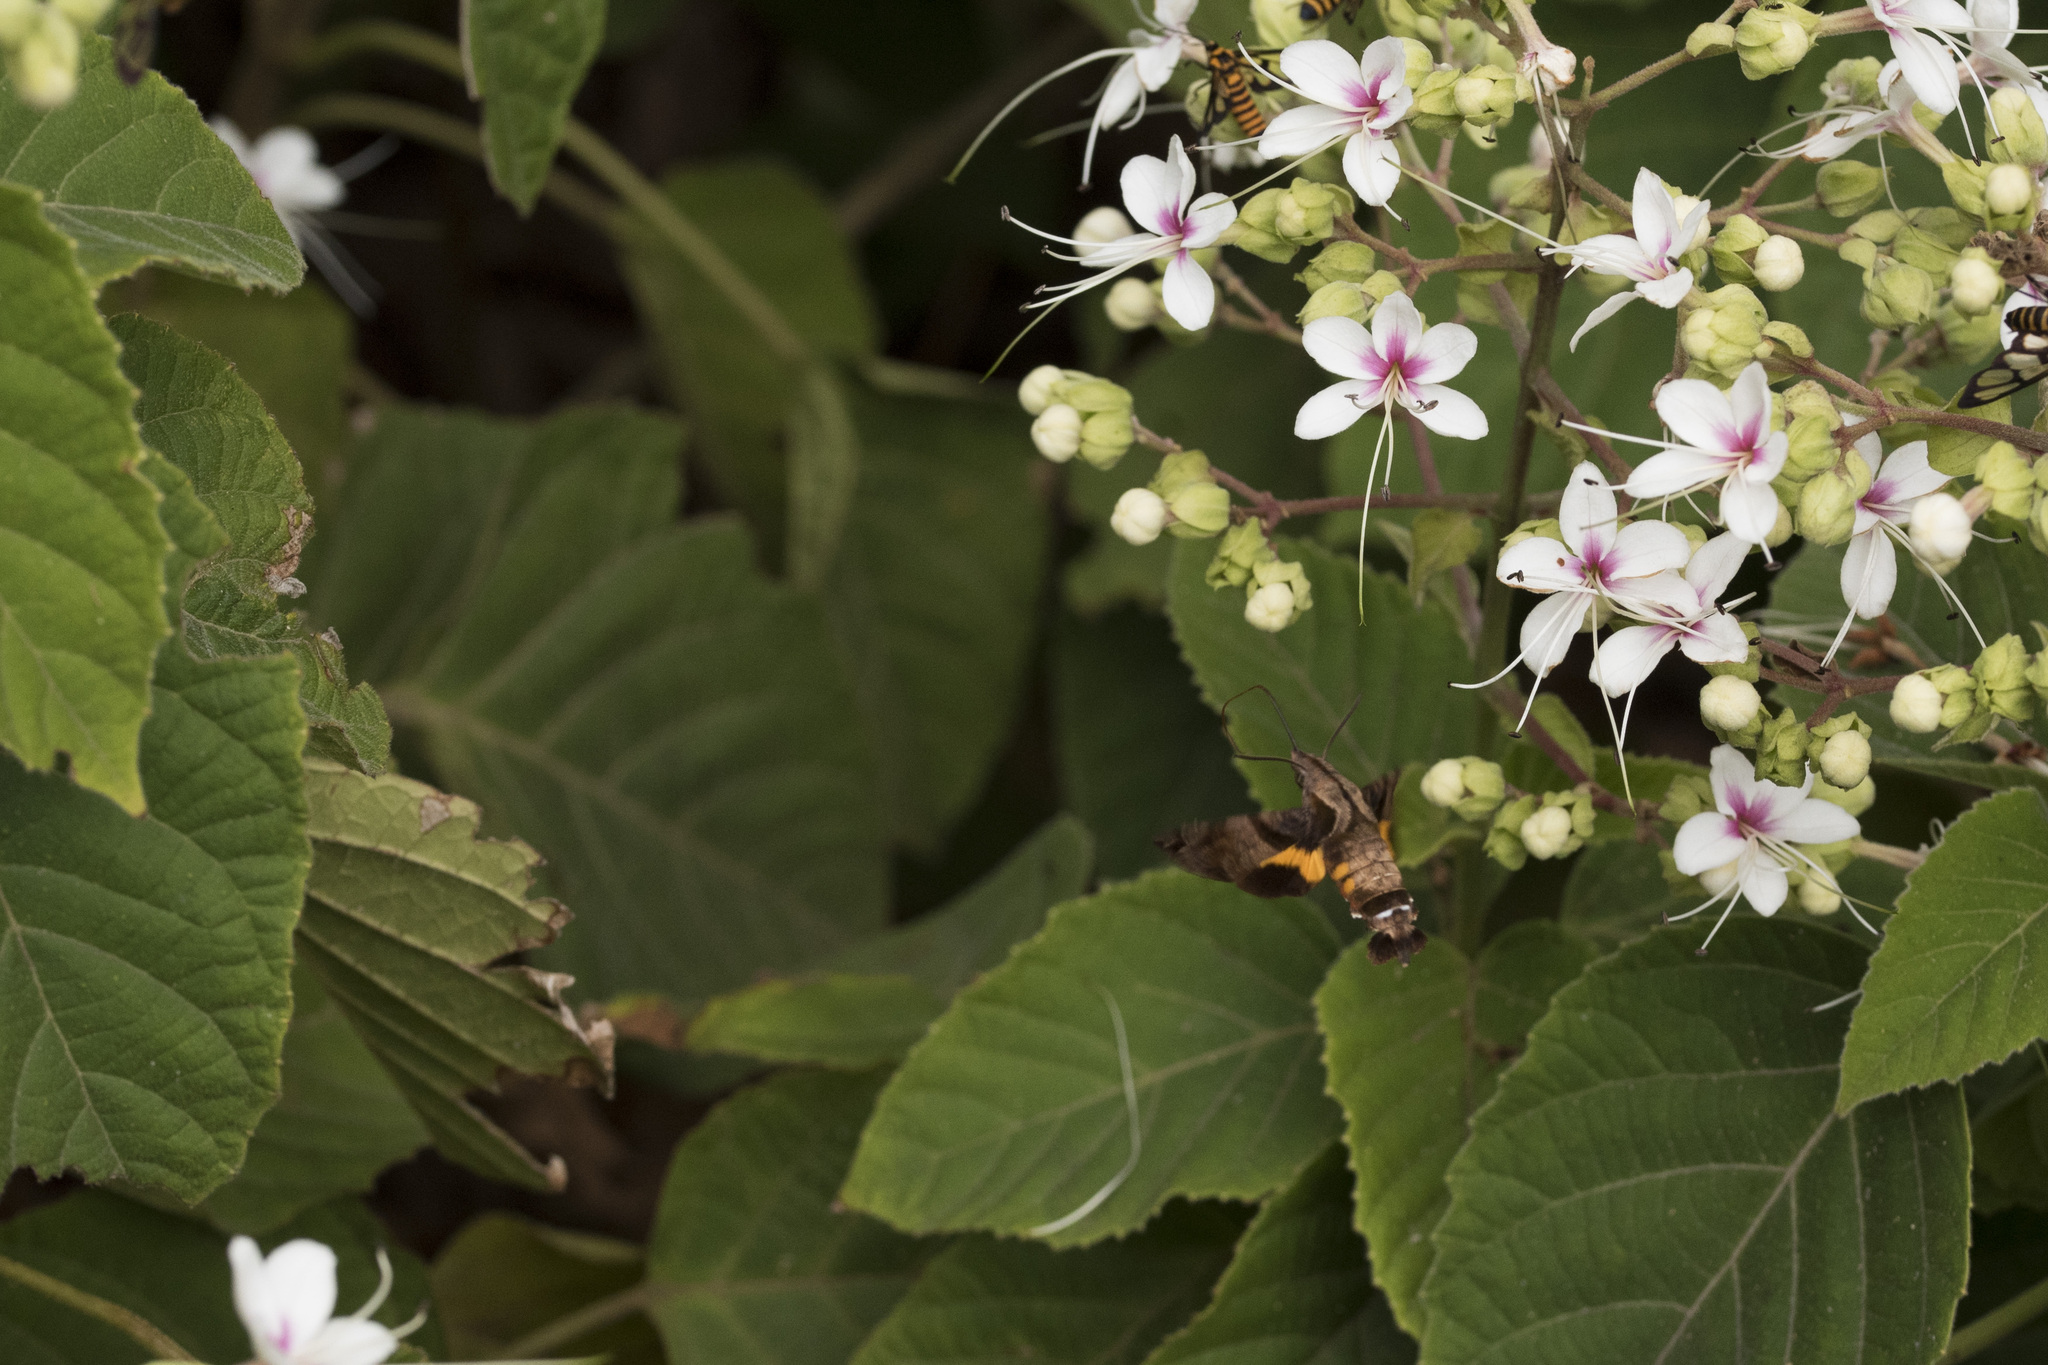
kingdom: Animalia
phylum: Arthropoda
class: Insecta
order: Lepidoptera
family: Sphingidae
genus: Macroglossum
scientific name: Macroglossum pyrrhosticta
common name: Hummingbird hawk moth
